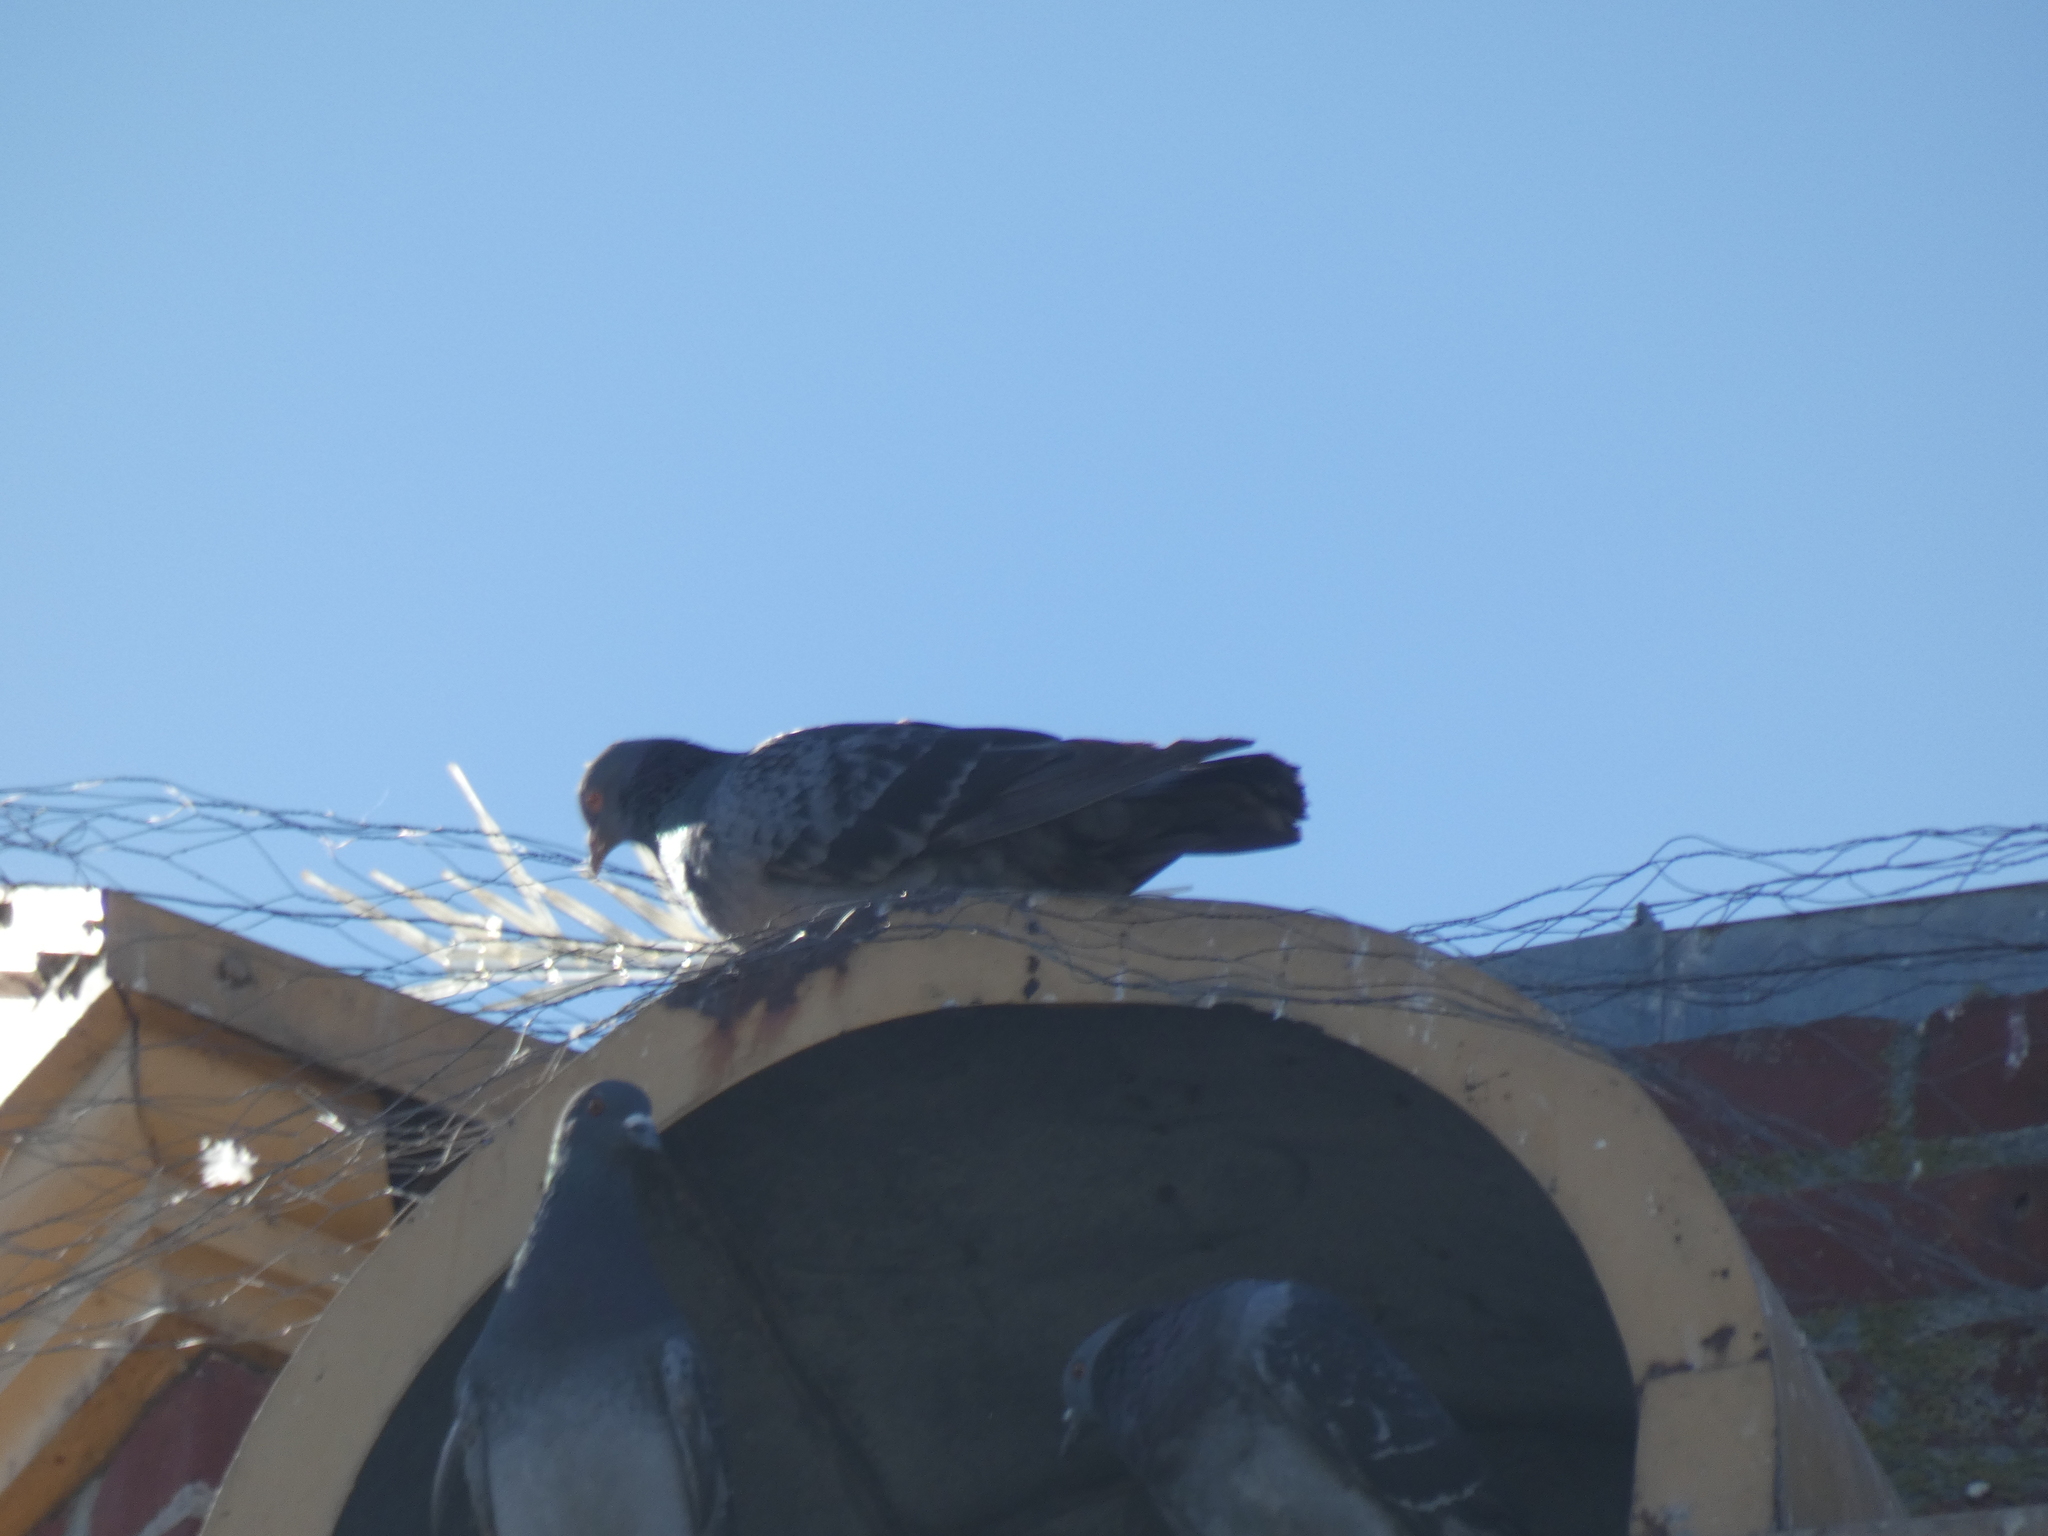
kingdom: Animalia
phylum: Chordata
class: Aves
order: Columbiformes
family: Columbidae
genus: Columba
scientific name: Columba livia
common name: Rock pigeon
